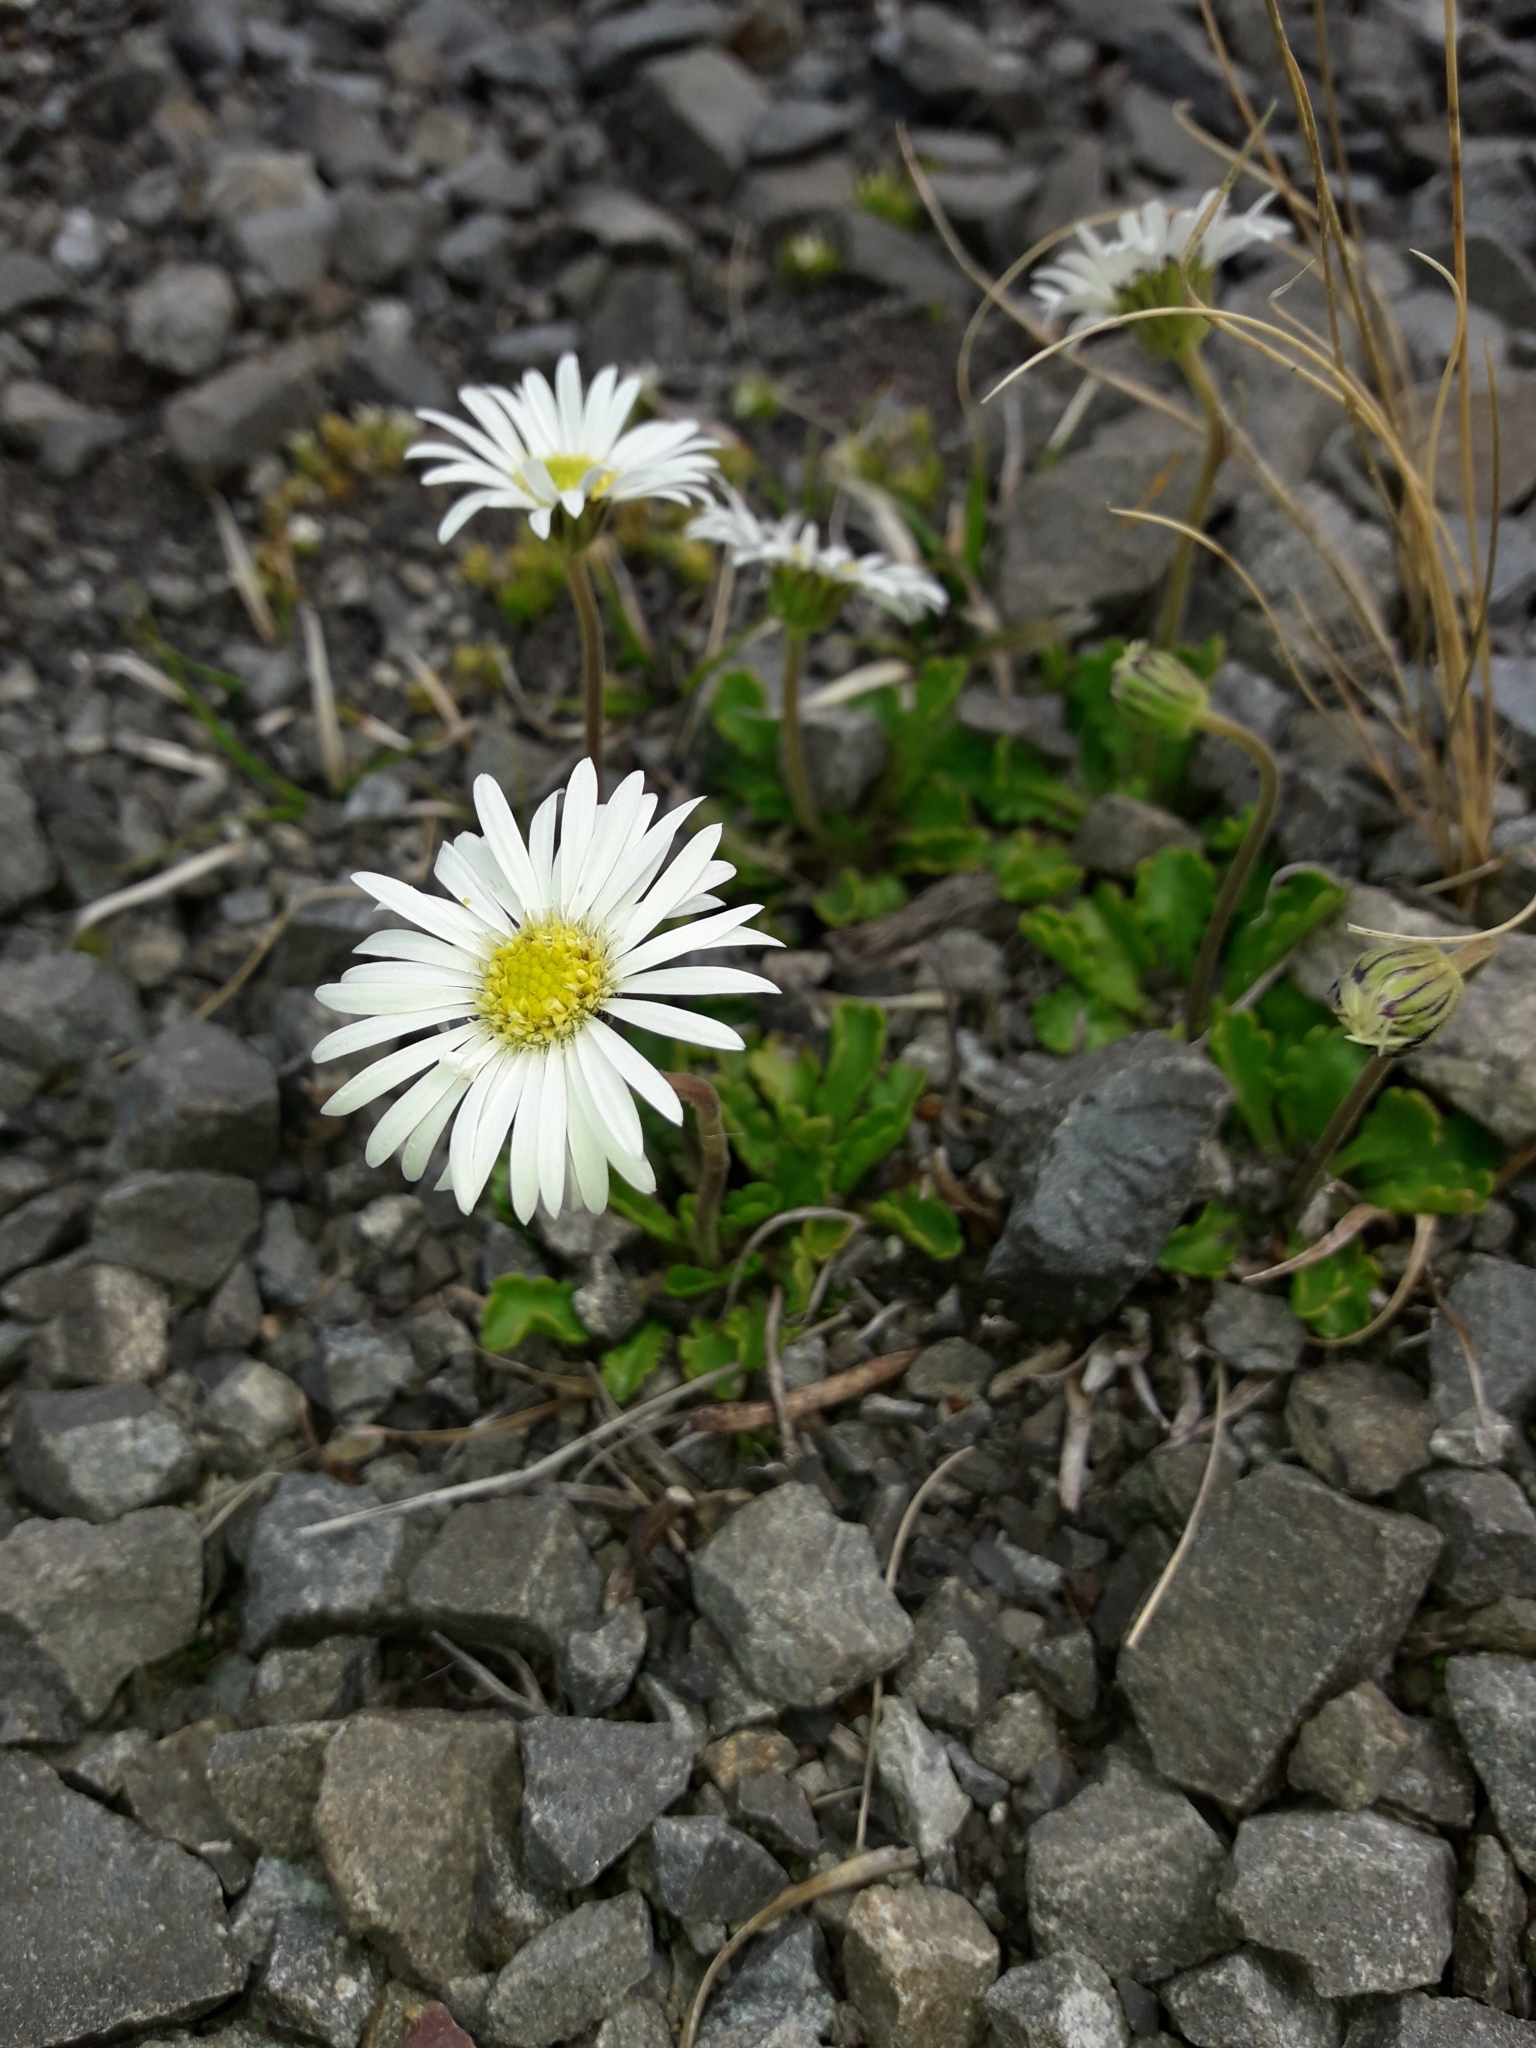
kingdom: Plantae
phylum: Tracheophyta
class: Magnoliopsida
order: Asterales
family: Asteraceae
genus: Brachyscome
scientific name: Brachyscome sinclairii
